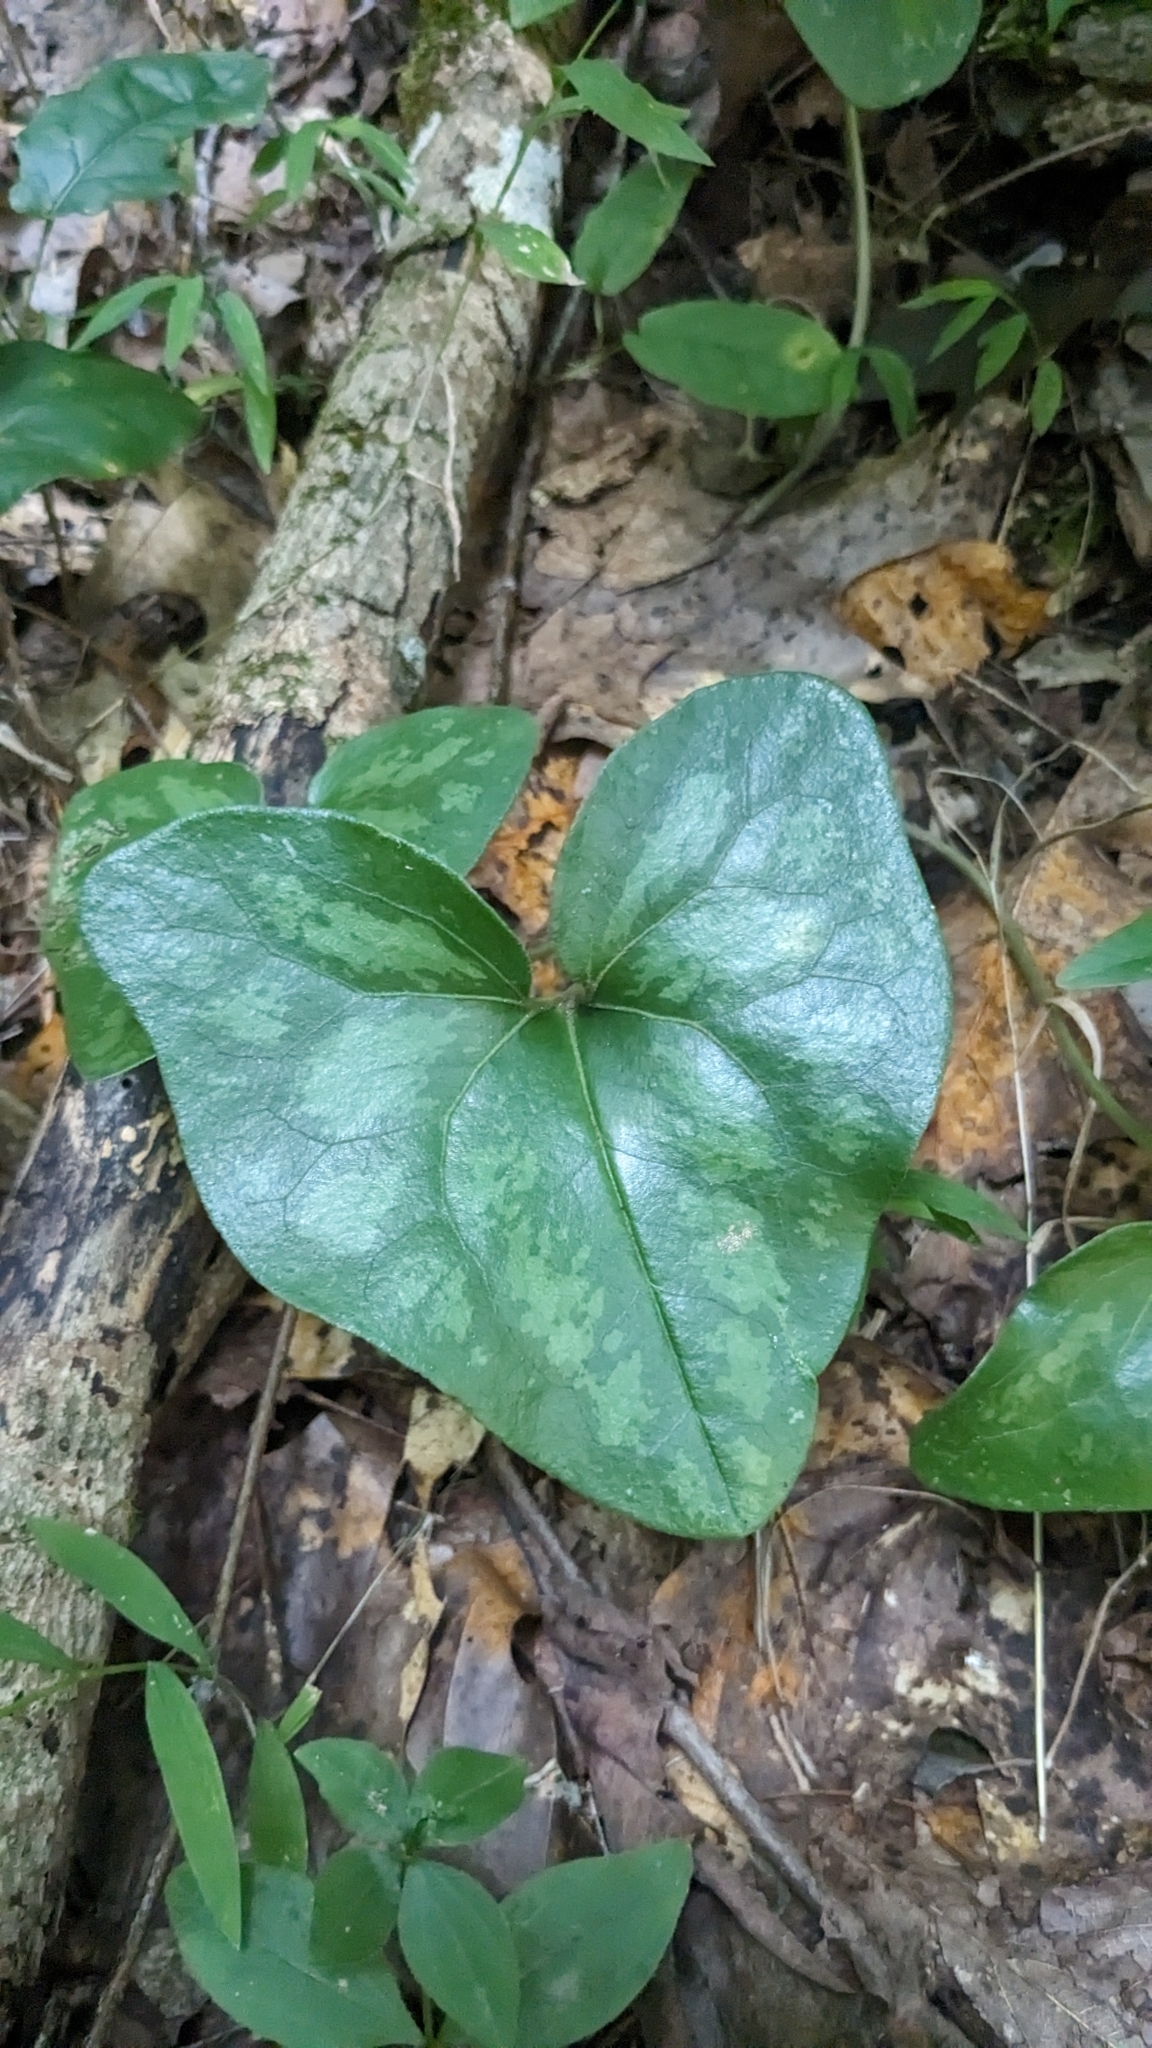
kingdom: Plantae
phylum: Tracheophyta
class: Magnoliopsida
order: Piperales
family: Aristolochiaceae
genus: Hexastylis
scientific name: Hexastylis arifolia
